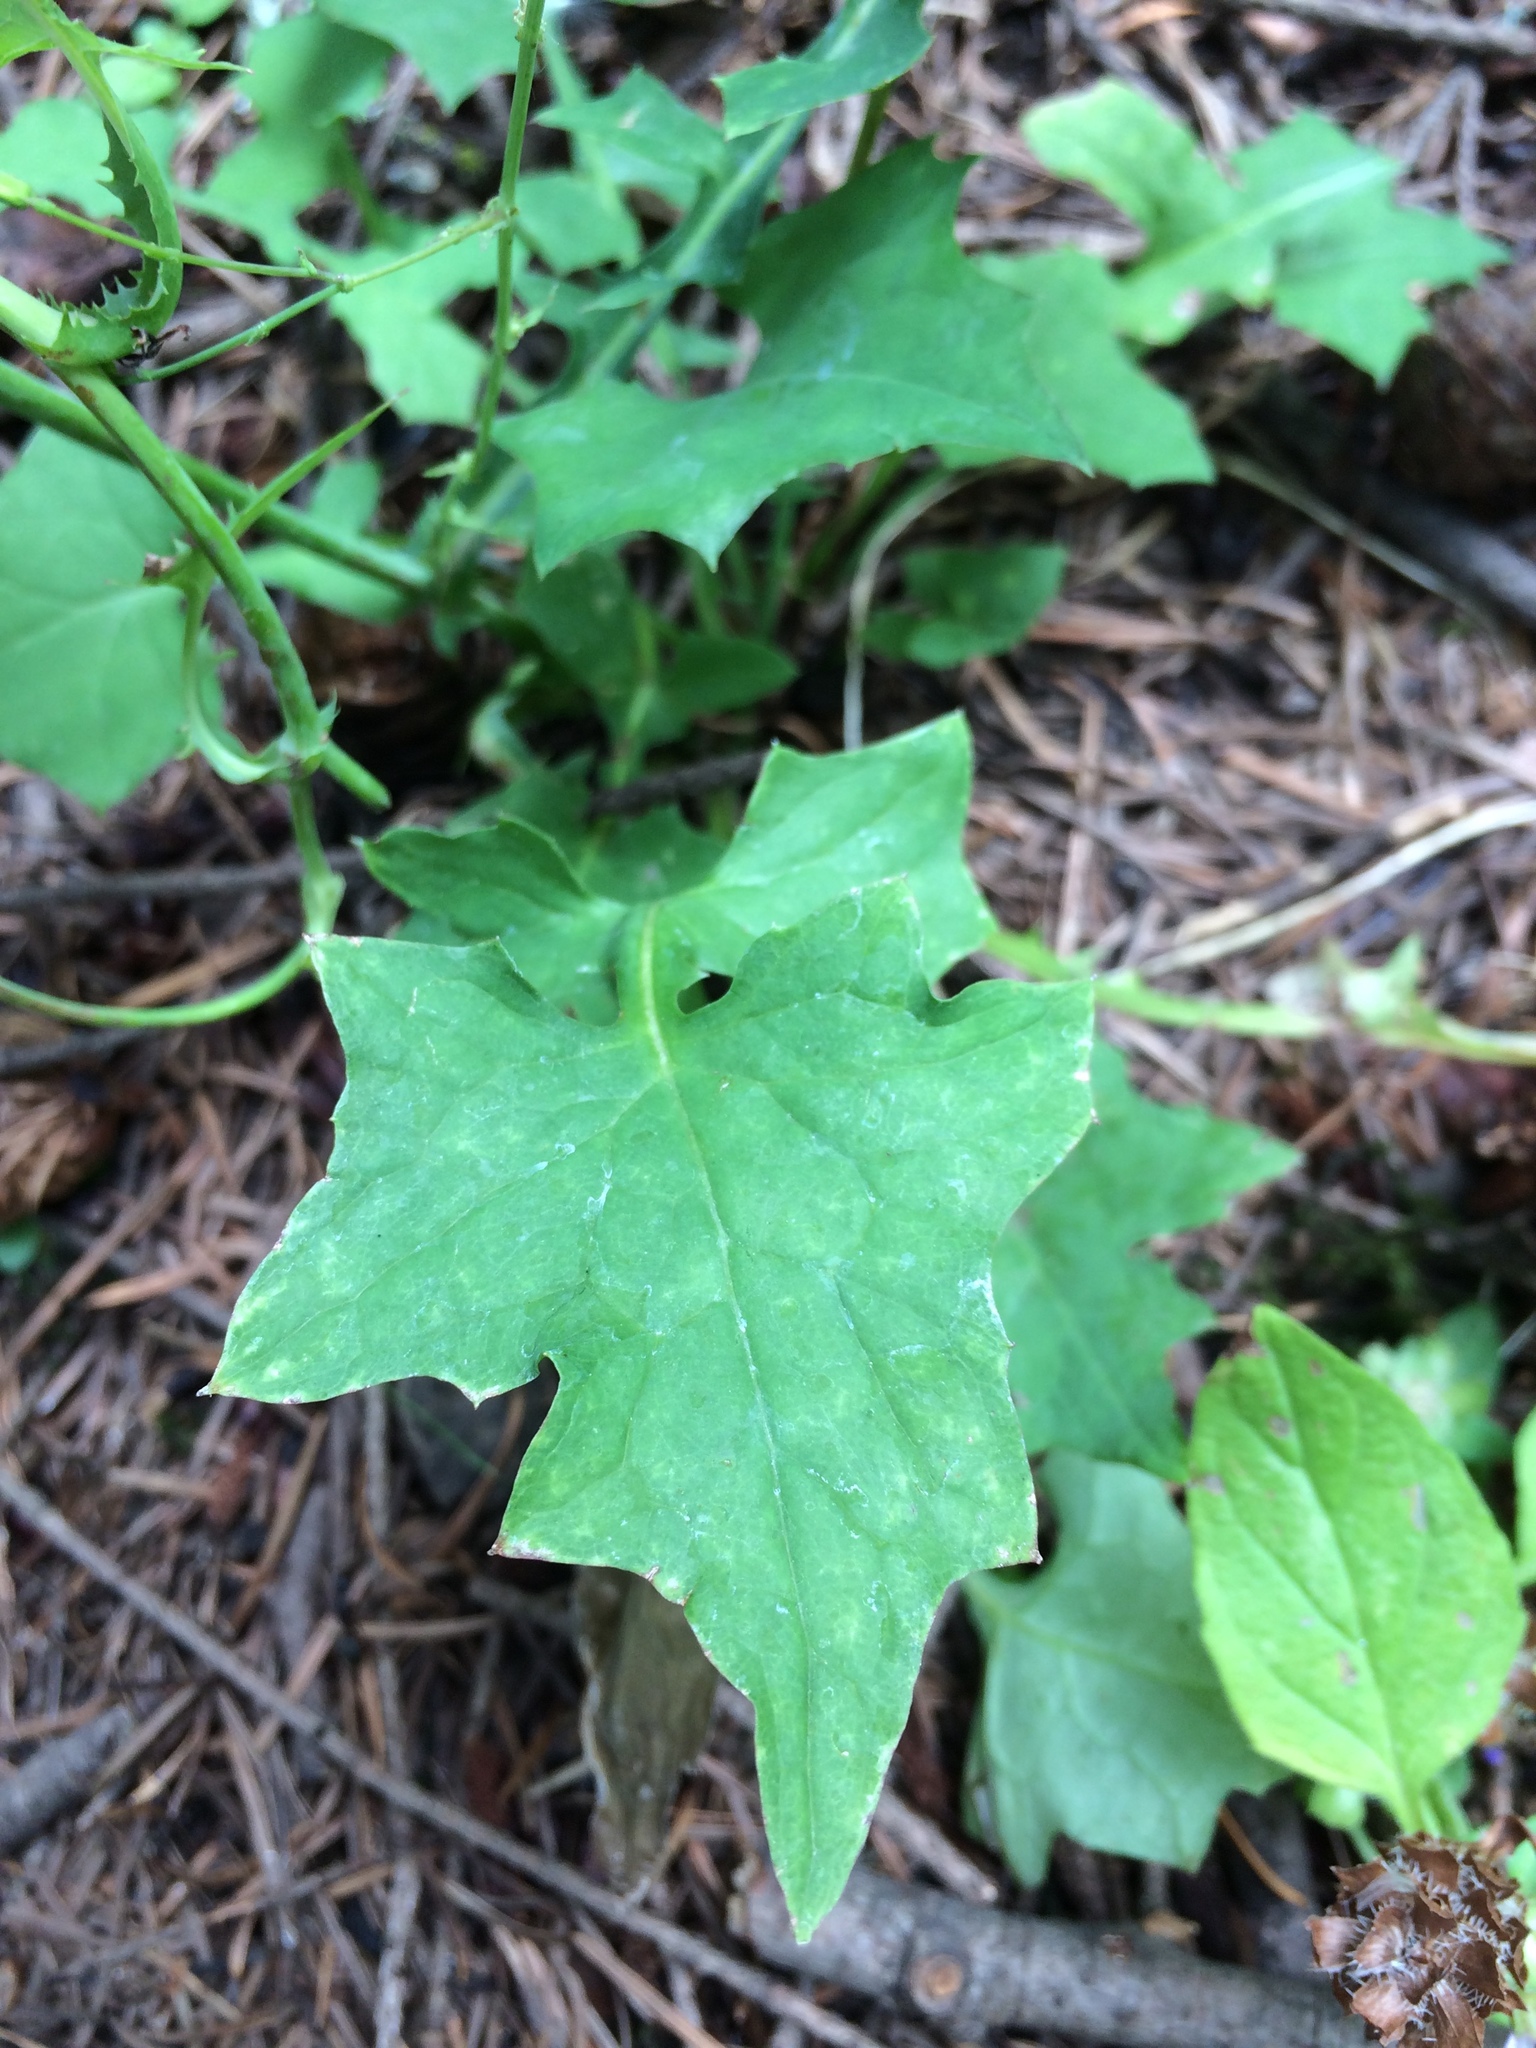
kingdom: Plantae
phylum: Tracheophyta
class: Magnoliopsida
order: Asterales
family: Asteraceae
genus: Mycelis
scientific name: Mycelis muralis
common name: Wall lettuce
